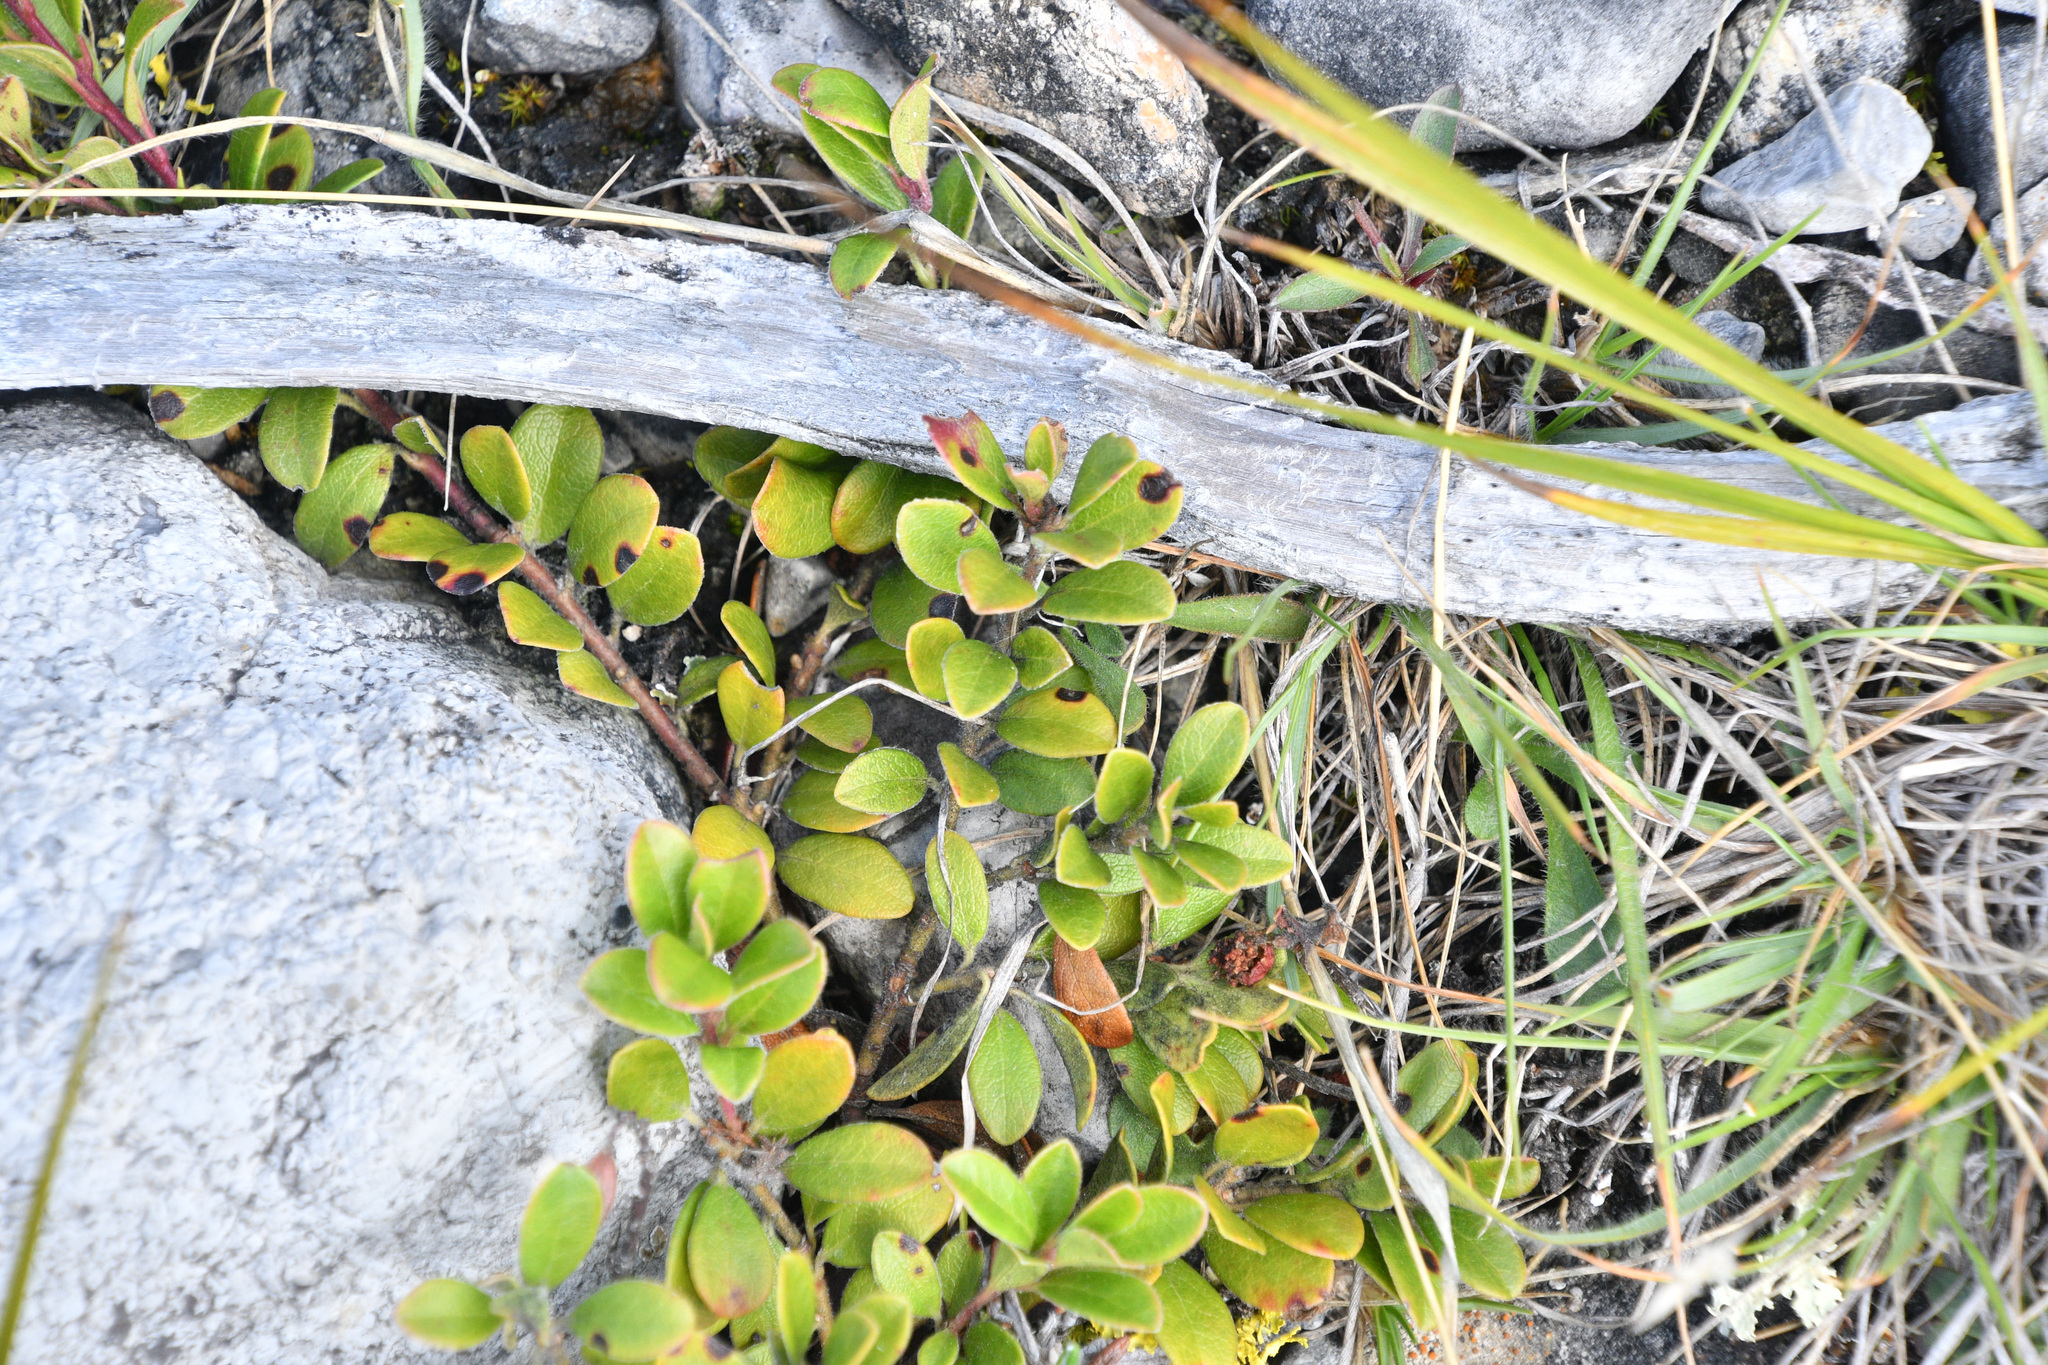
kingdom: Plantae
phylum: Tracheophyta
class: Magnoliopsida
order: Ericales
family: Ericaceae
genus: Arctostaphylos
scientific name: Arctostaphylos uva-ursi
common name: Bearberry
